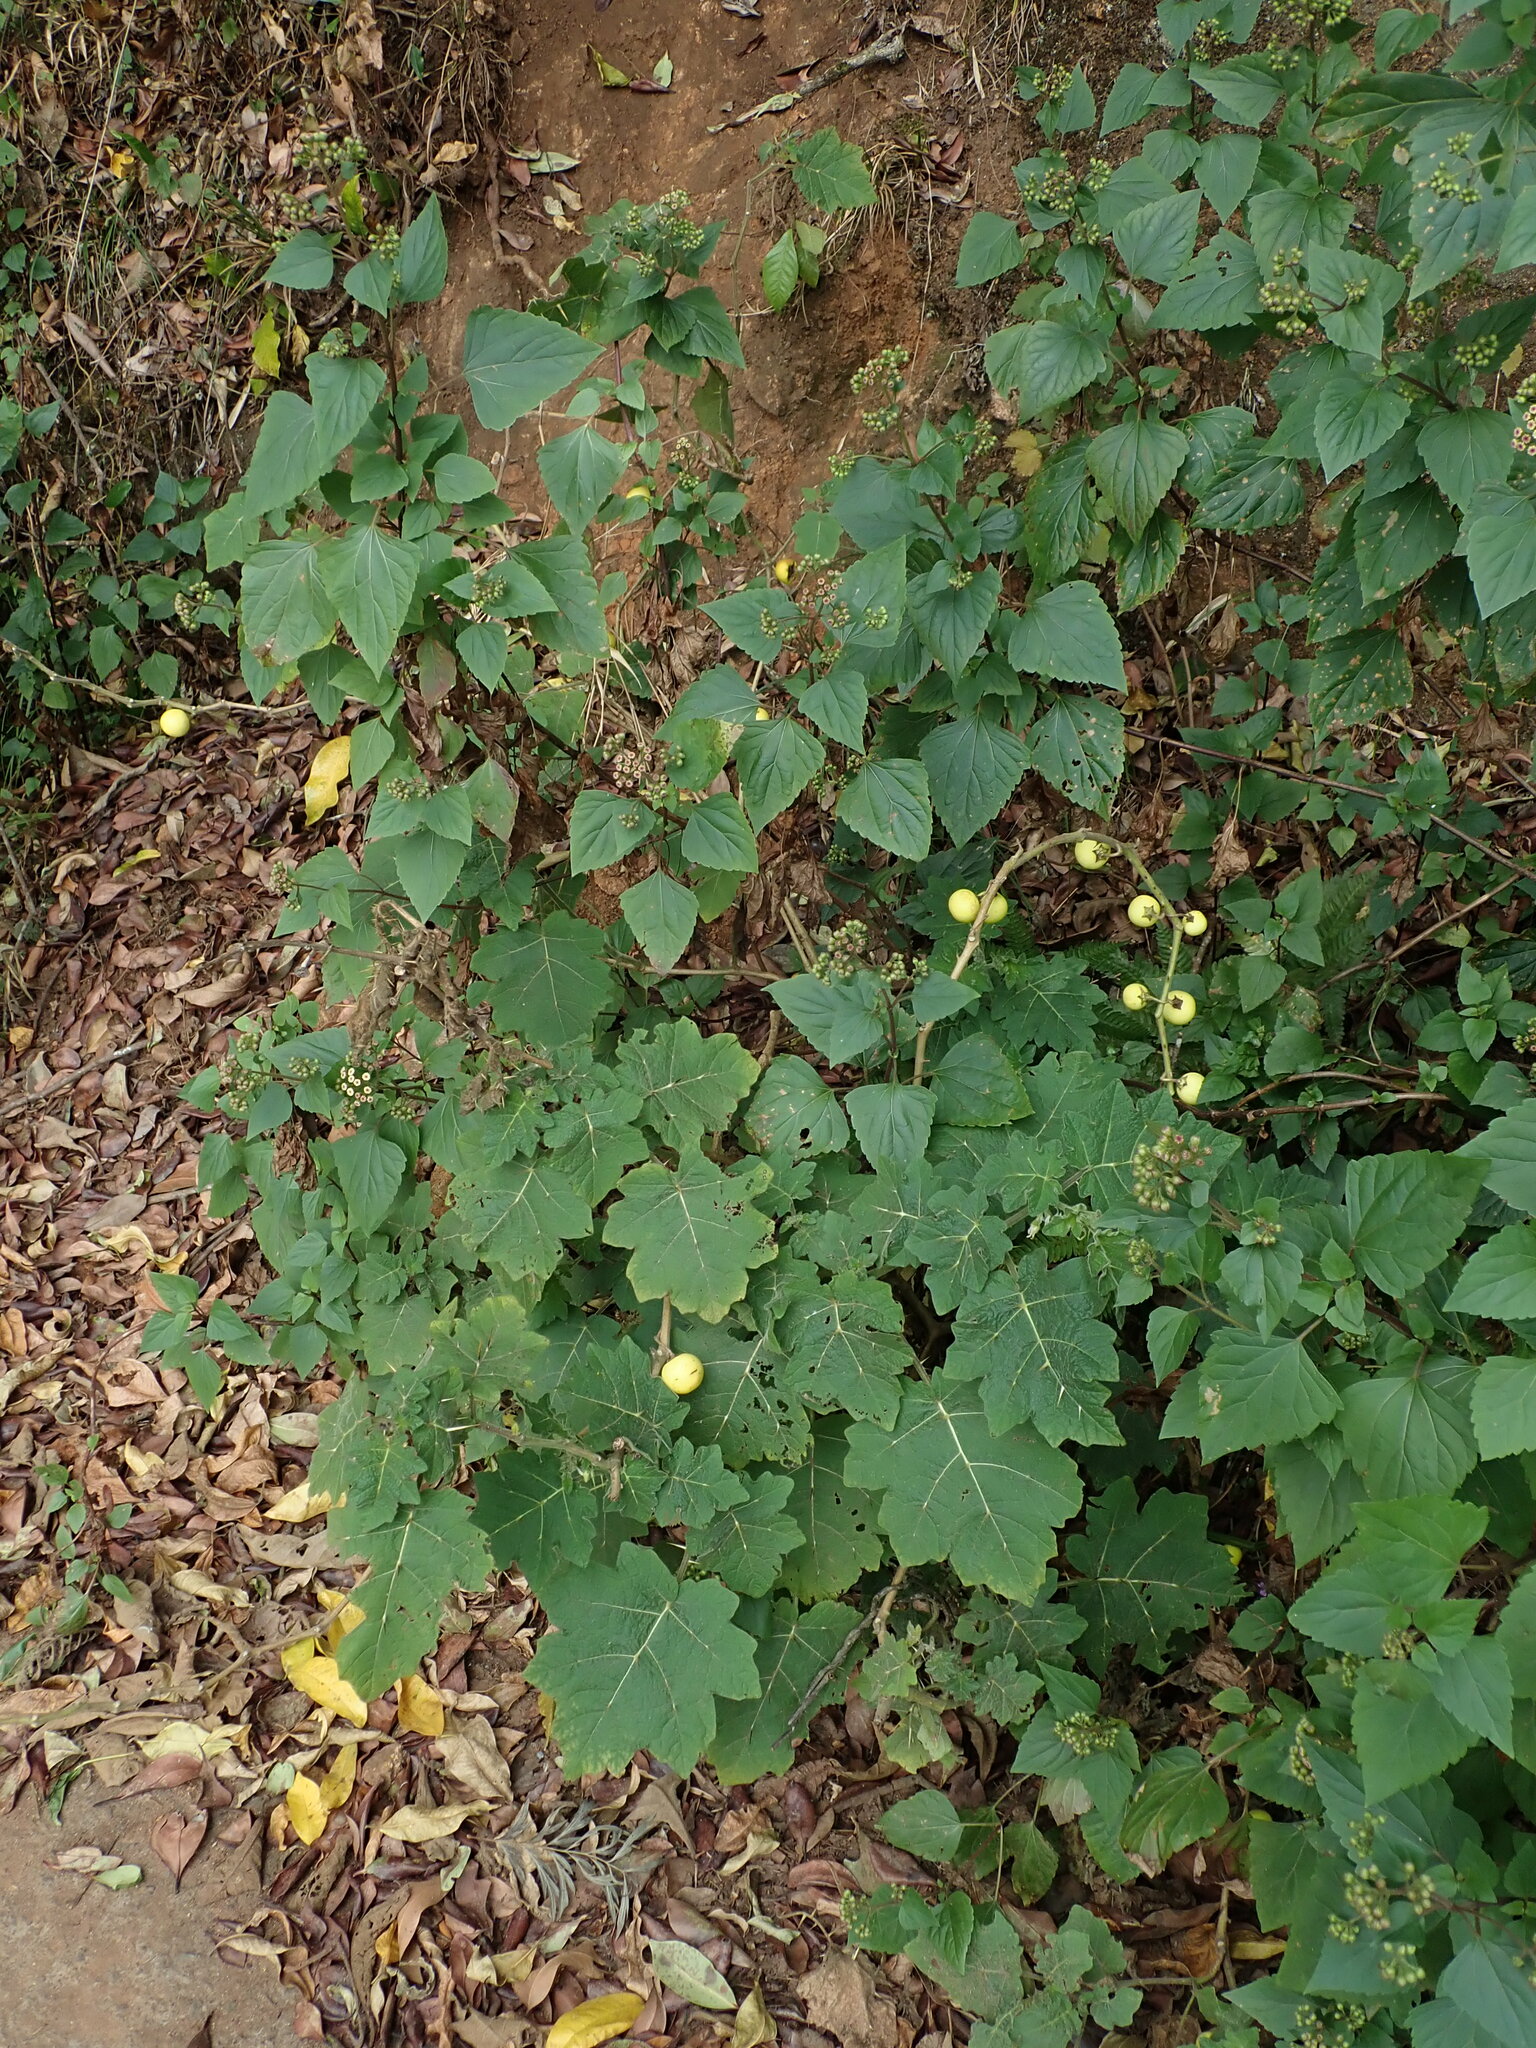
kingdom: Plantae
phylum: Tracheophyta
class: Magnoliopsida
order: Solanales
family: Solanaceae
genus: Solanum
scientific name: Solanum viarum
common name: Tropical soda apple
